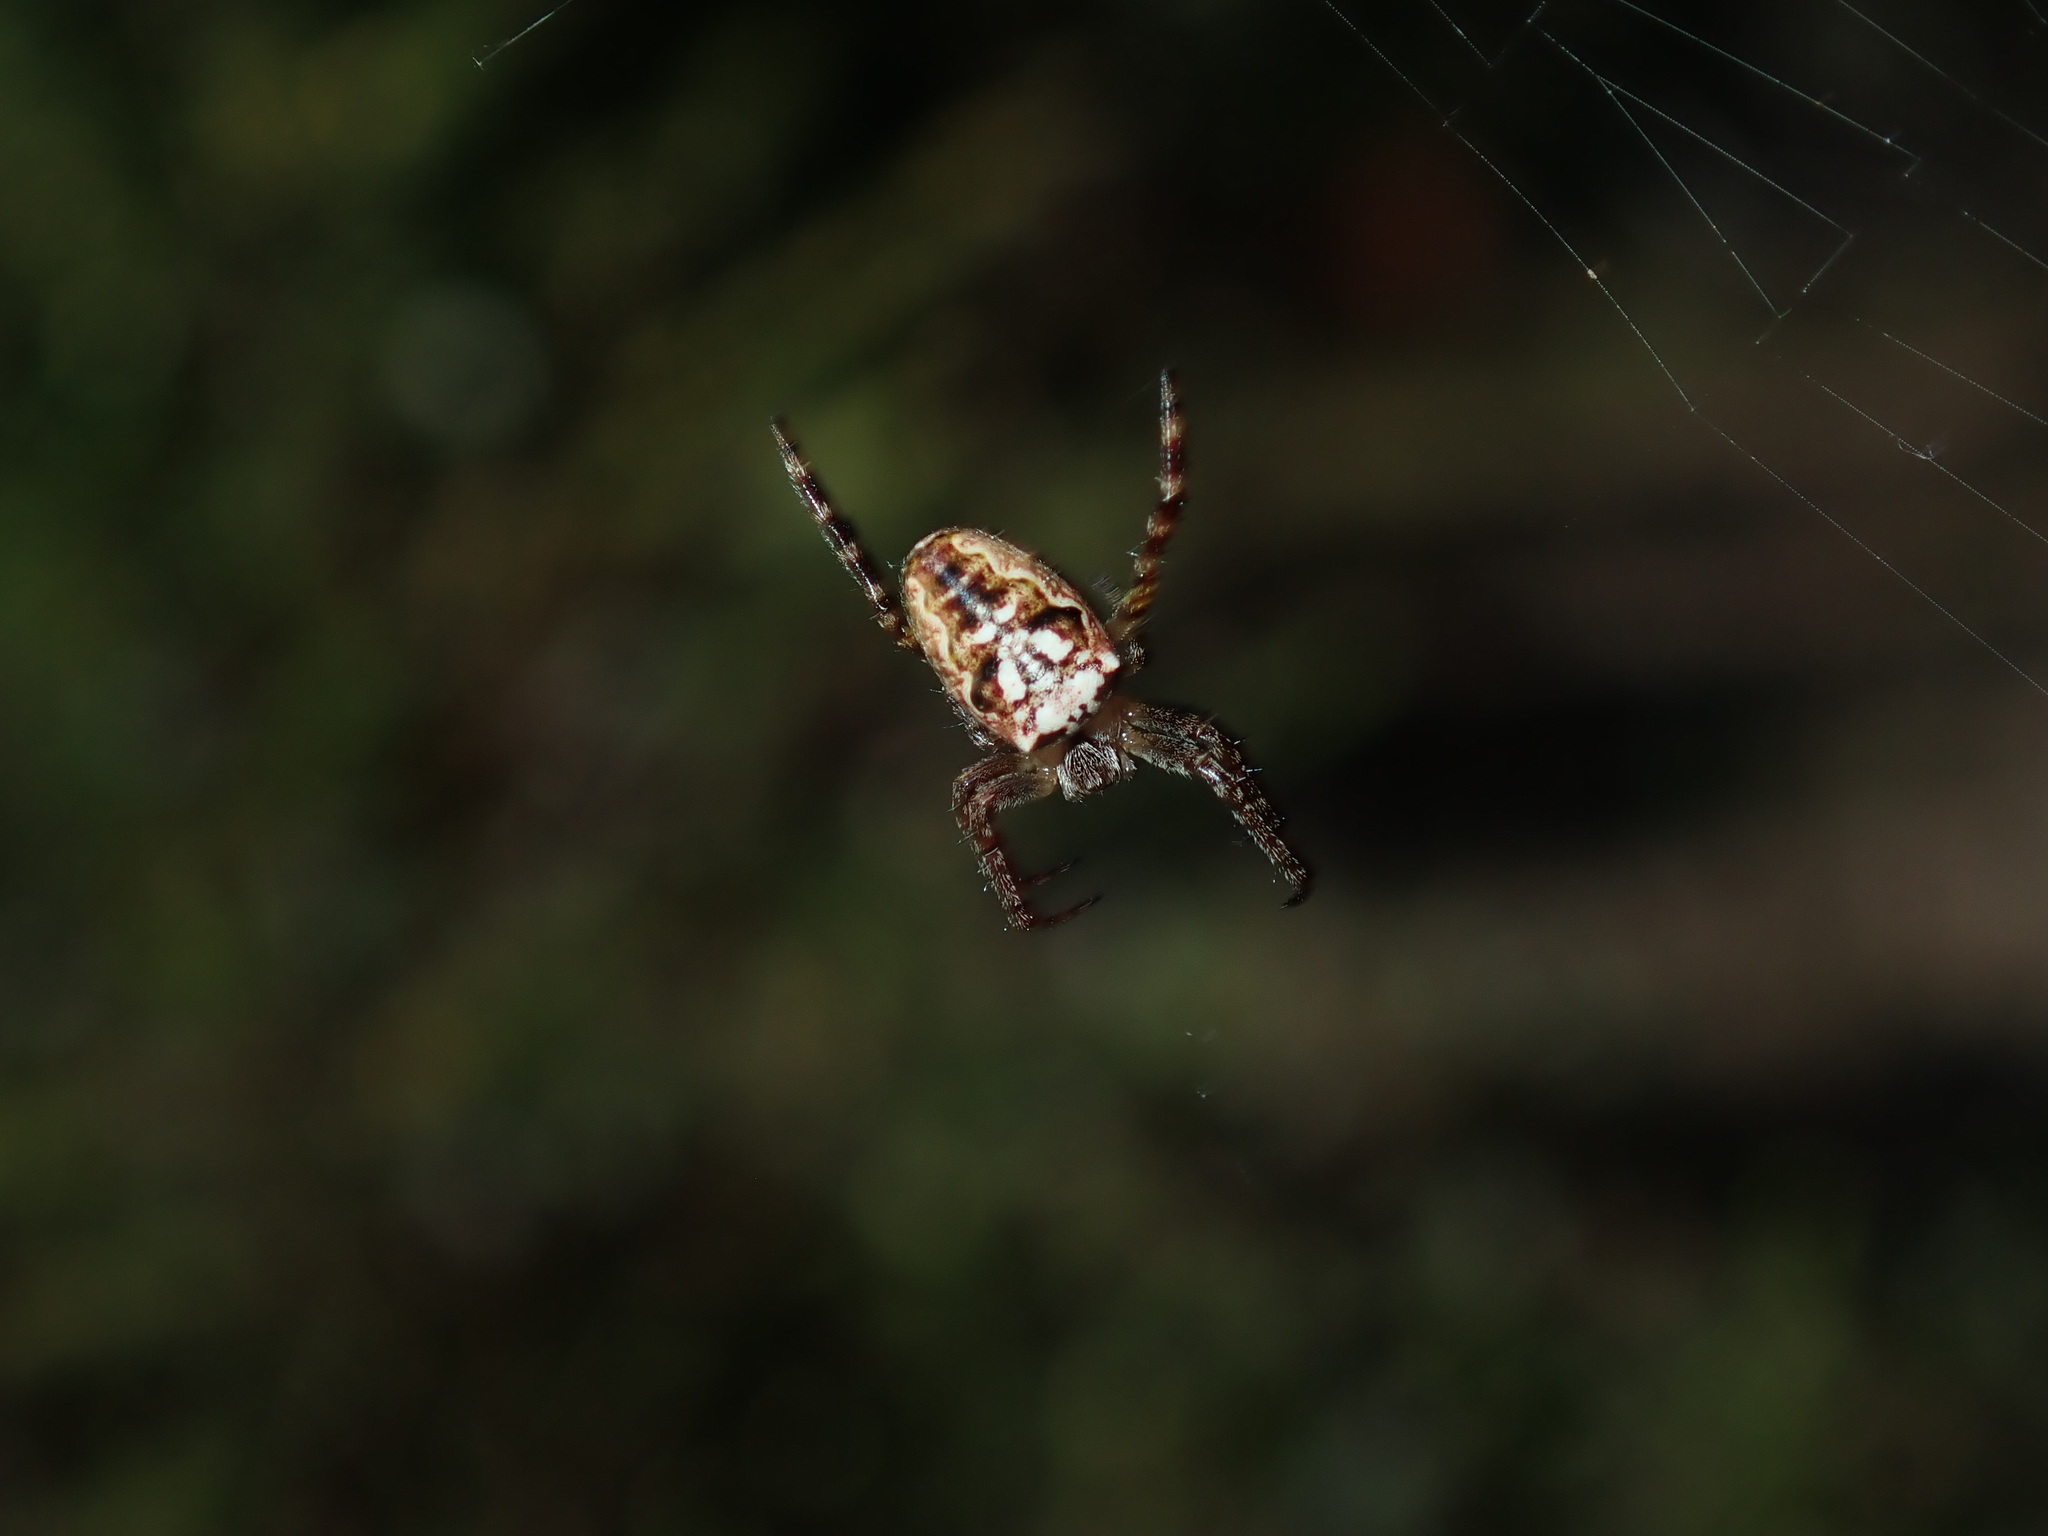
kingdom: Animalia
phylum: Arthropoda
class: Arachnida
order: Araneae
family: Araneidae
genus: Plebs
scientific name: Plebs eburnus
